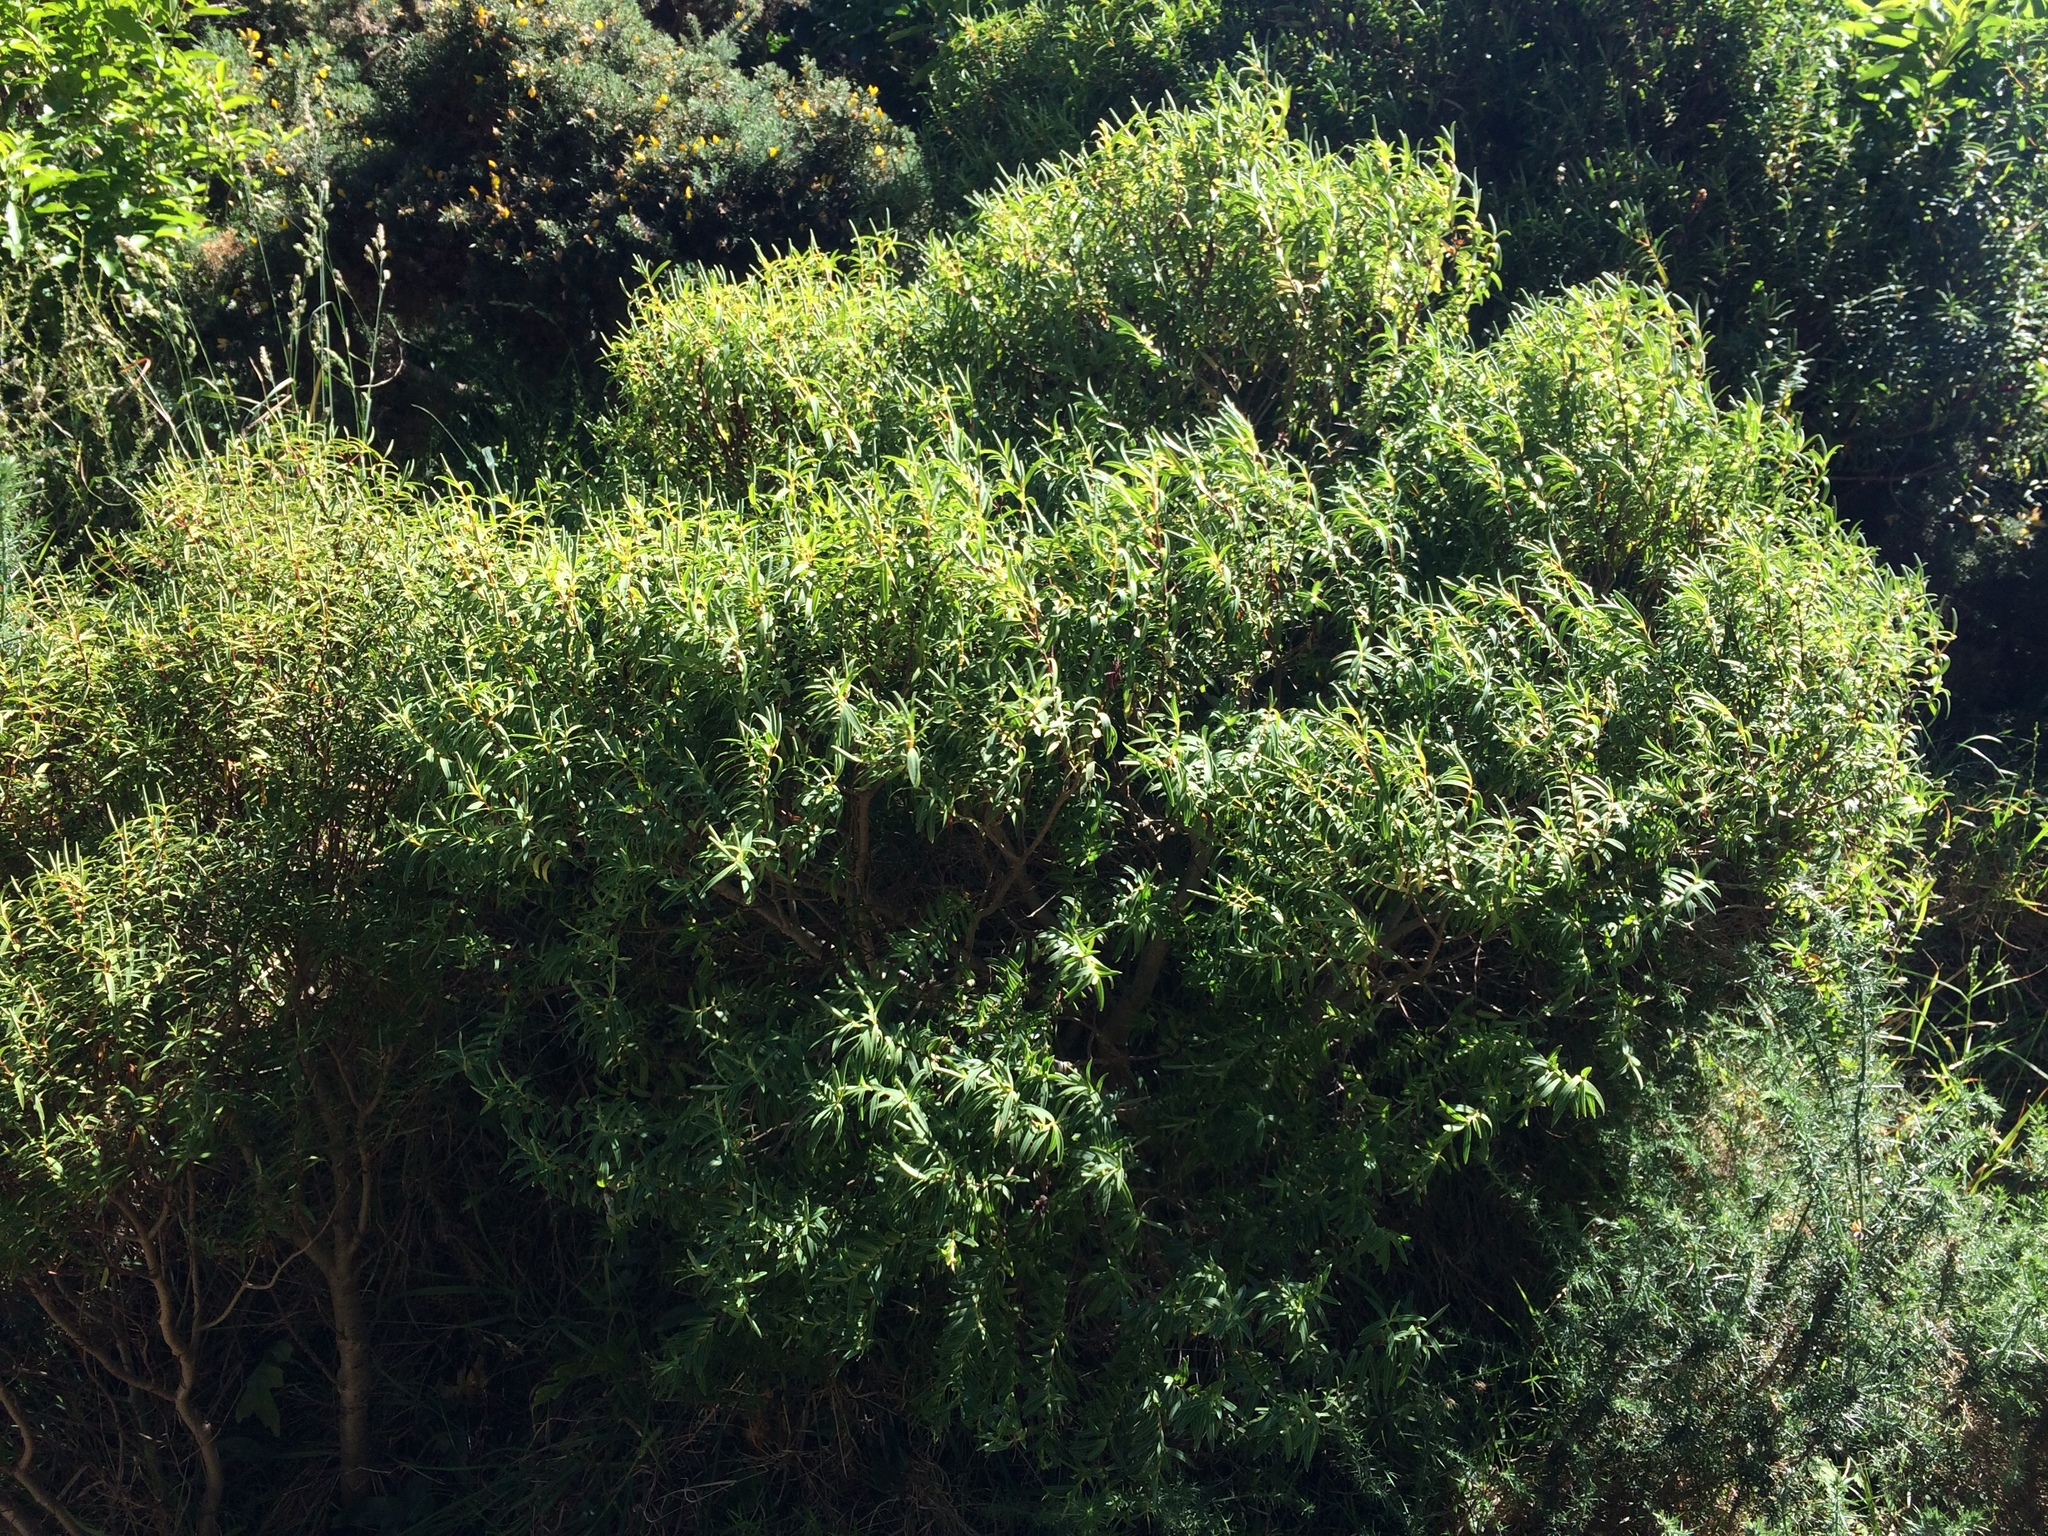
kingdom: Plantae
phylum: Tracheophyta
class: Magnoliopsida
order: Lamiales
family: Plantaginaceae
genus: Veronica
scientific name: Veronica parviflora
